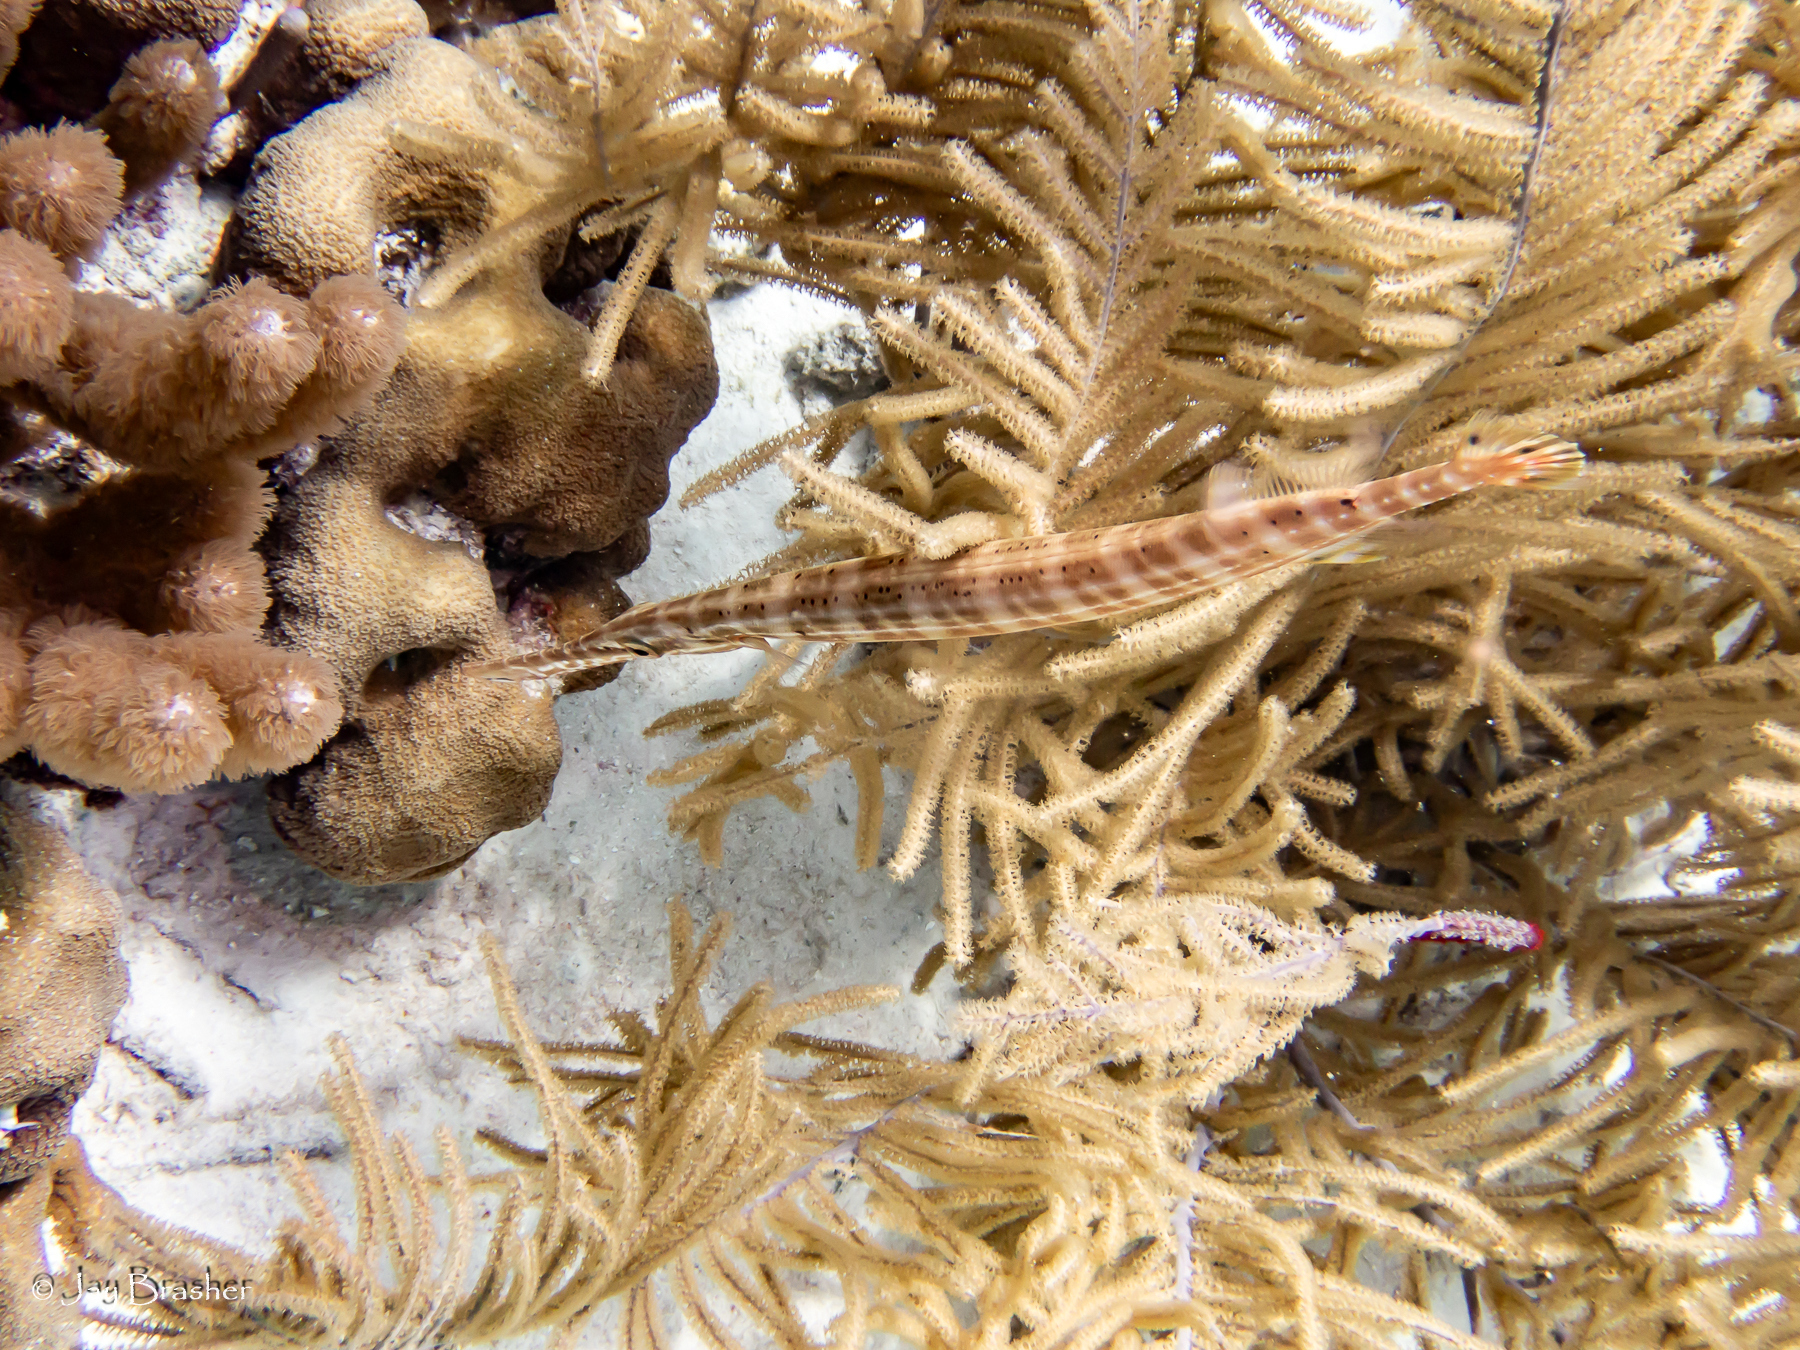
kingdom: Animalia
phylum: Chordata
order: Syngnathiformes
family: Aulostomidae
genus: Aulostomus
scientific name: Aulostomus maculatus
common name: West atlantic trumpetfish
